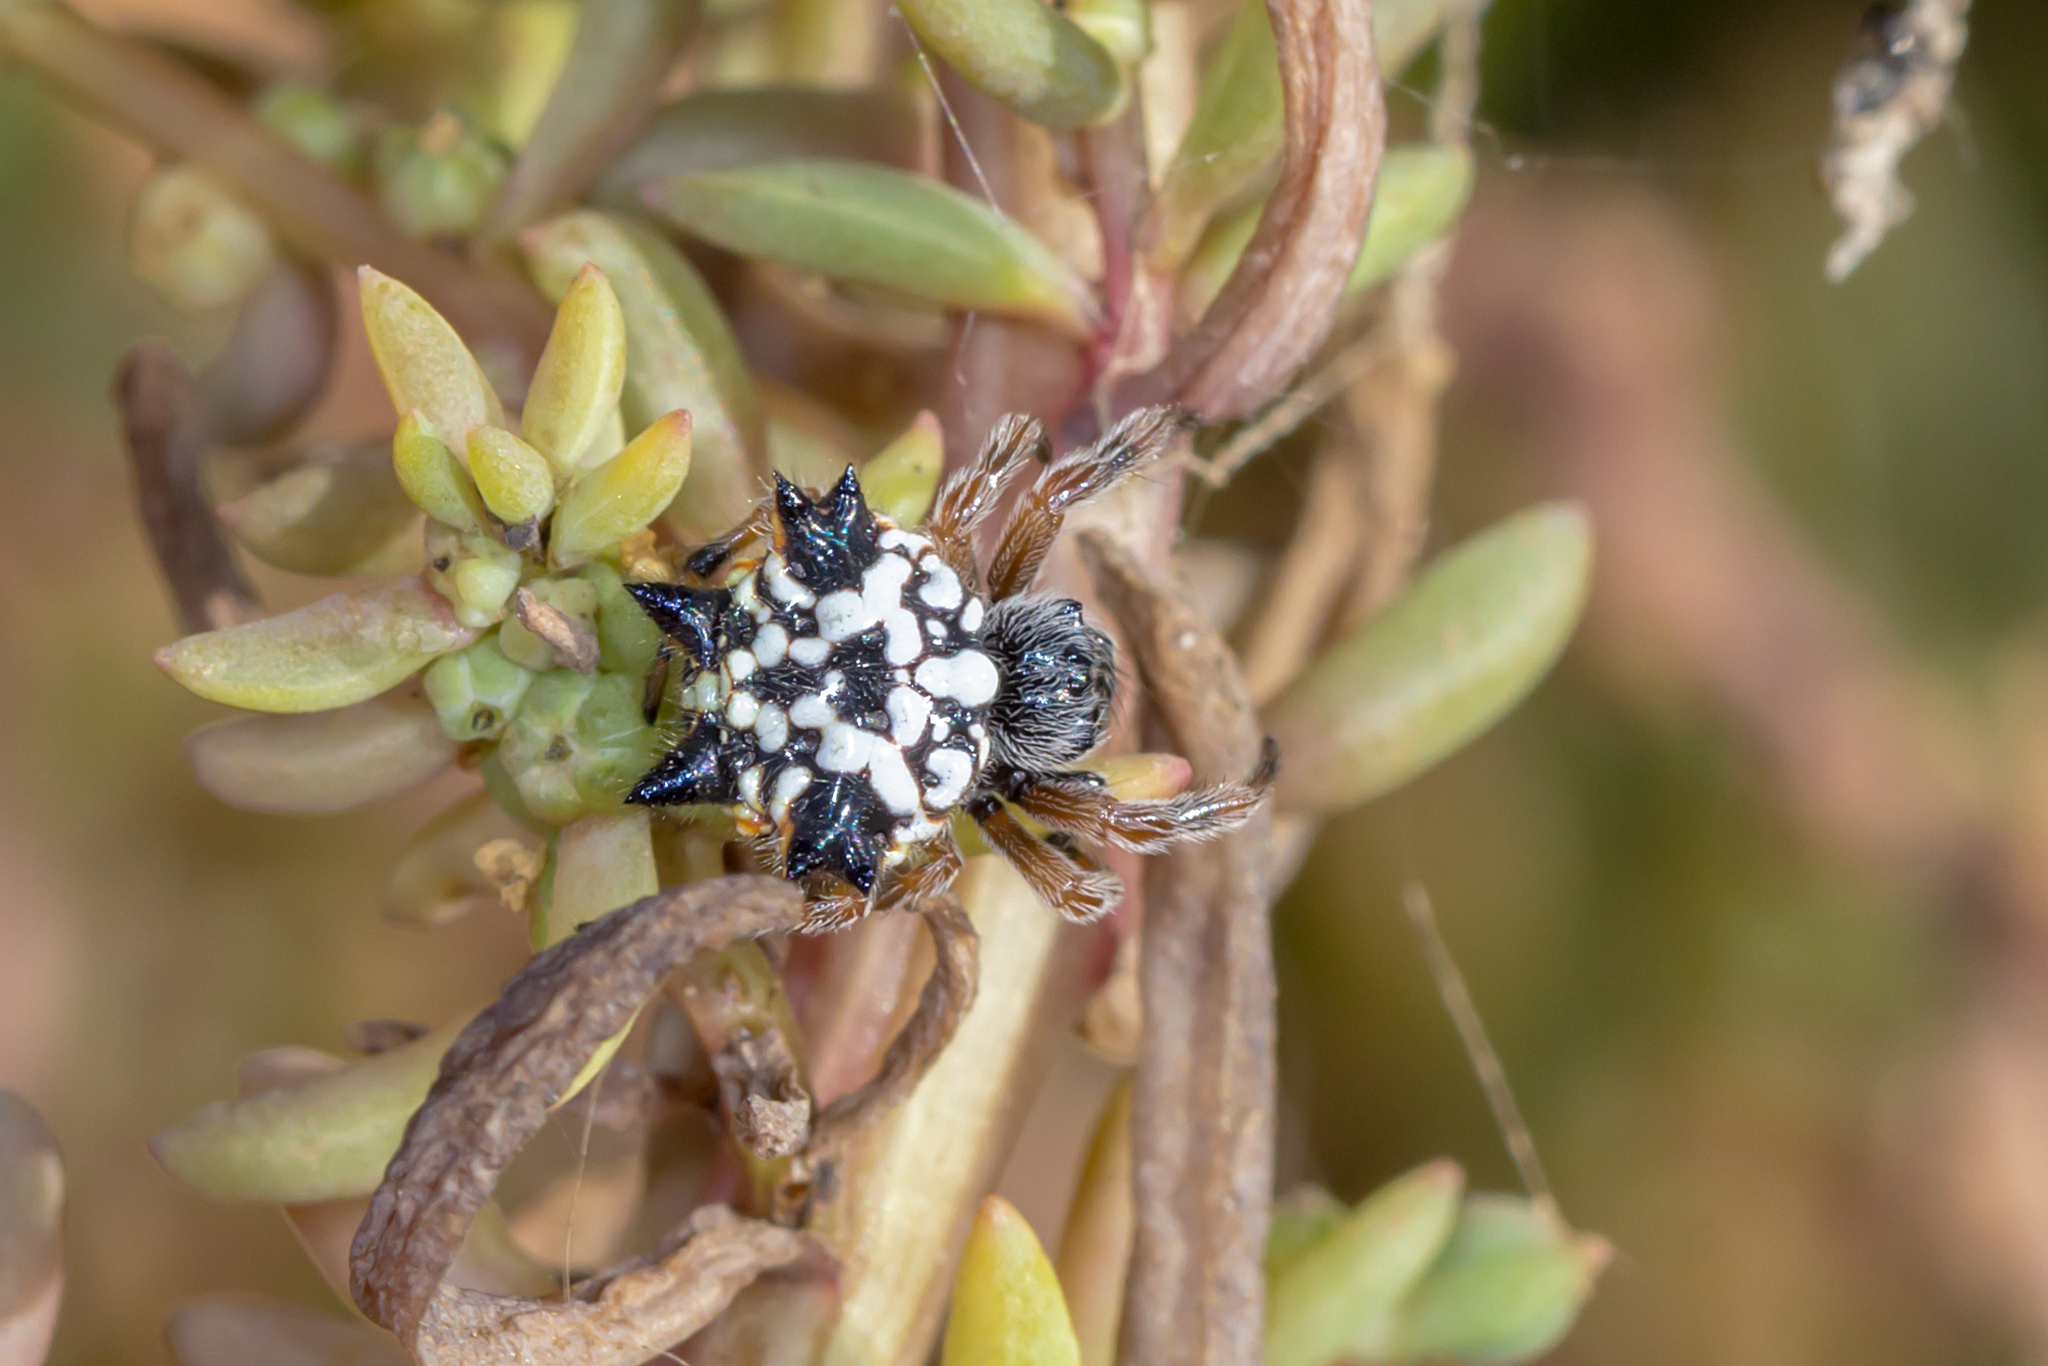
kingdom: Animalia
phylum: Arthropoda
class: Arachnida
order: Araneae
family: Araneidae
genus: Austracantha
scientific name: Austracantha minax
